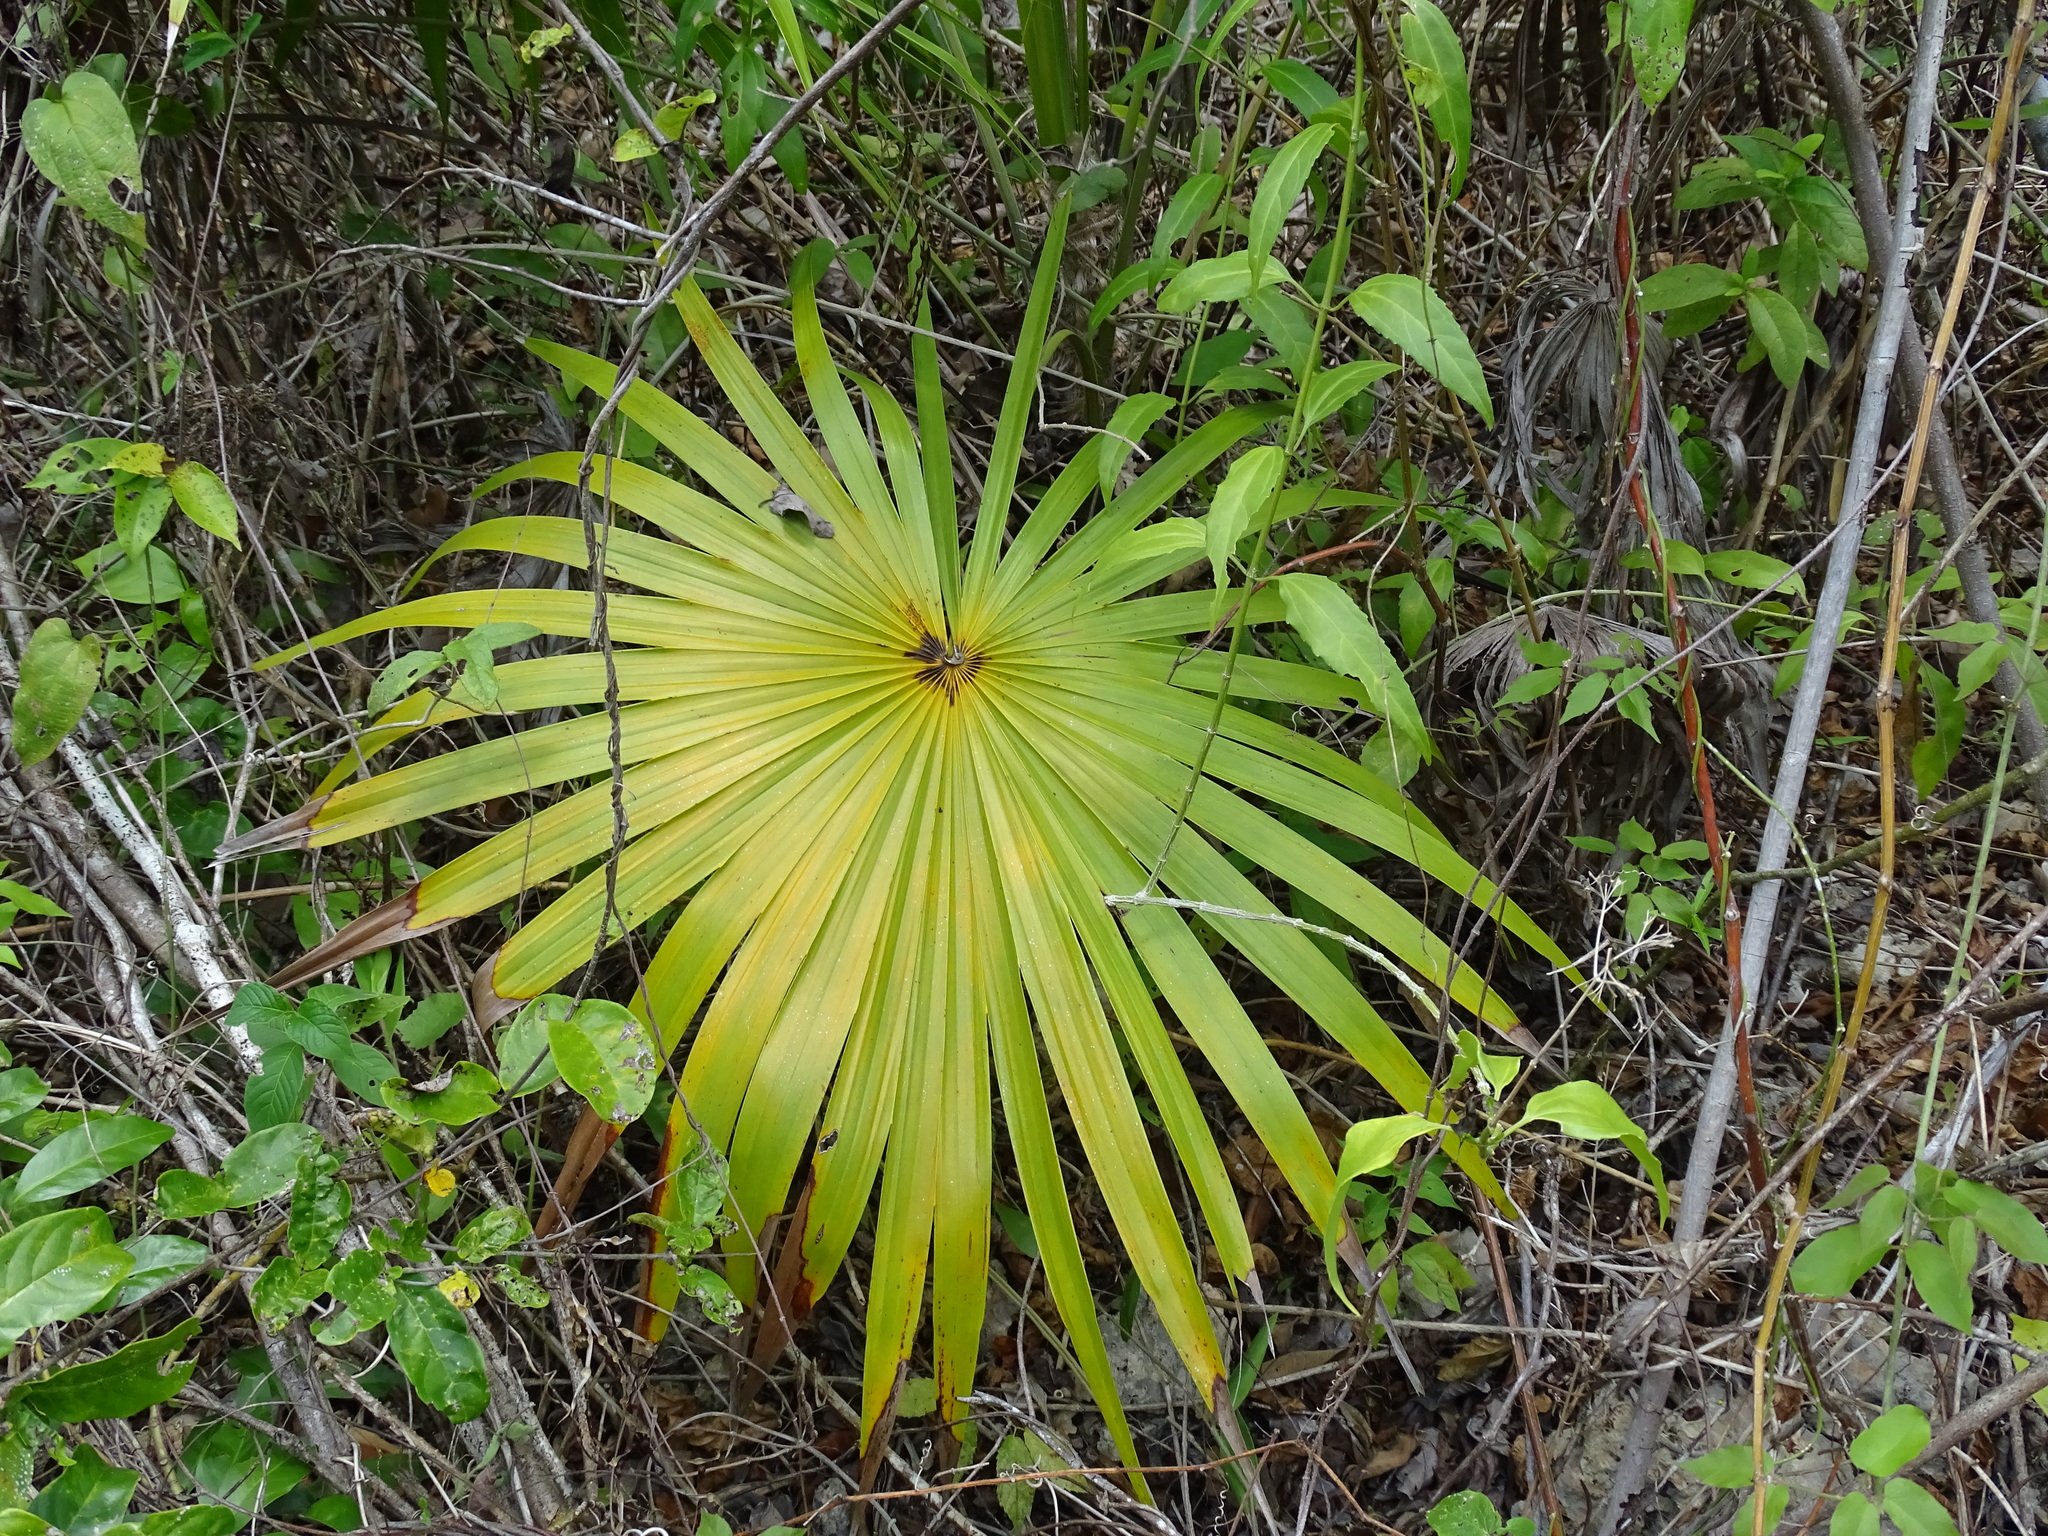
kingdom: Plantae
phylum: Tracheophyta
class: Liliopsida
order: Arecales
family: Arecaceae
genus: Thrinax
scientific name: Thrinax radiata
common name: Florida thatch
